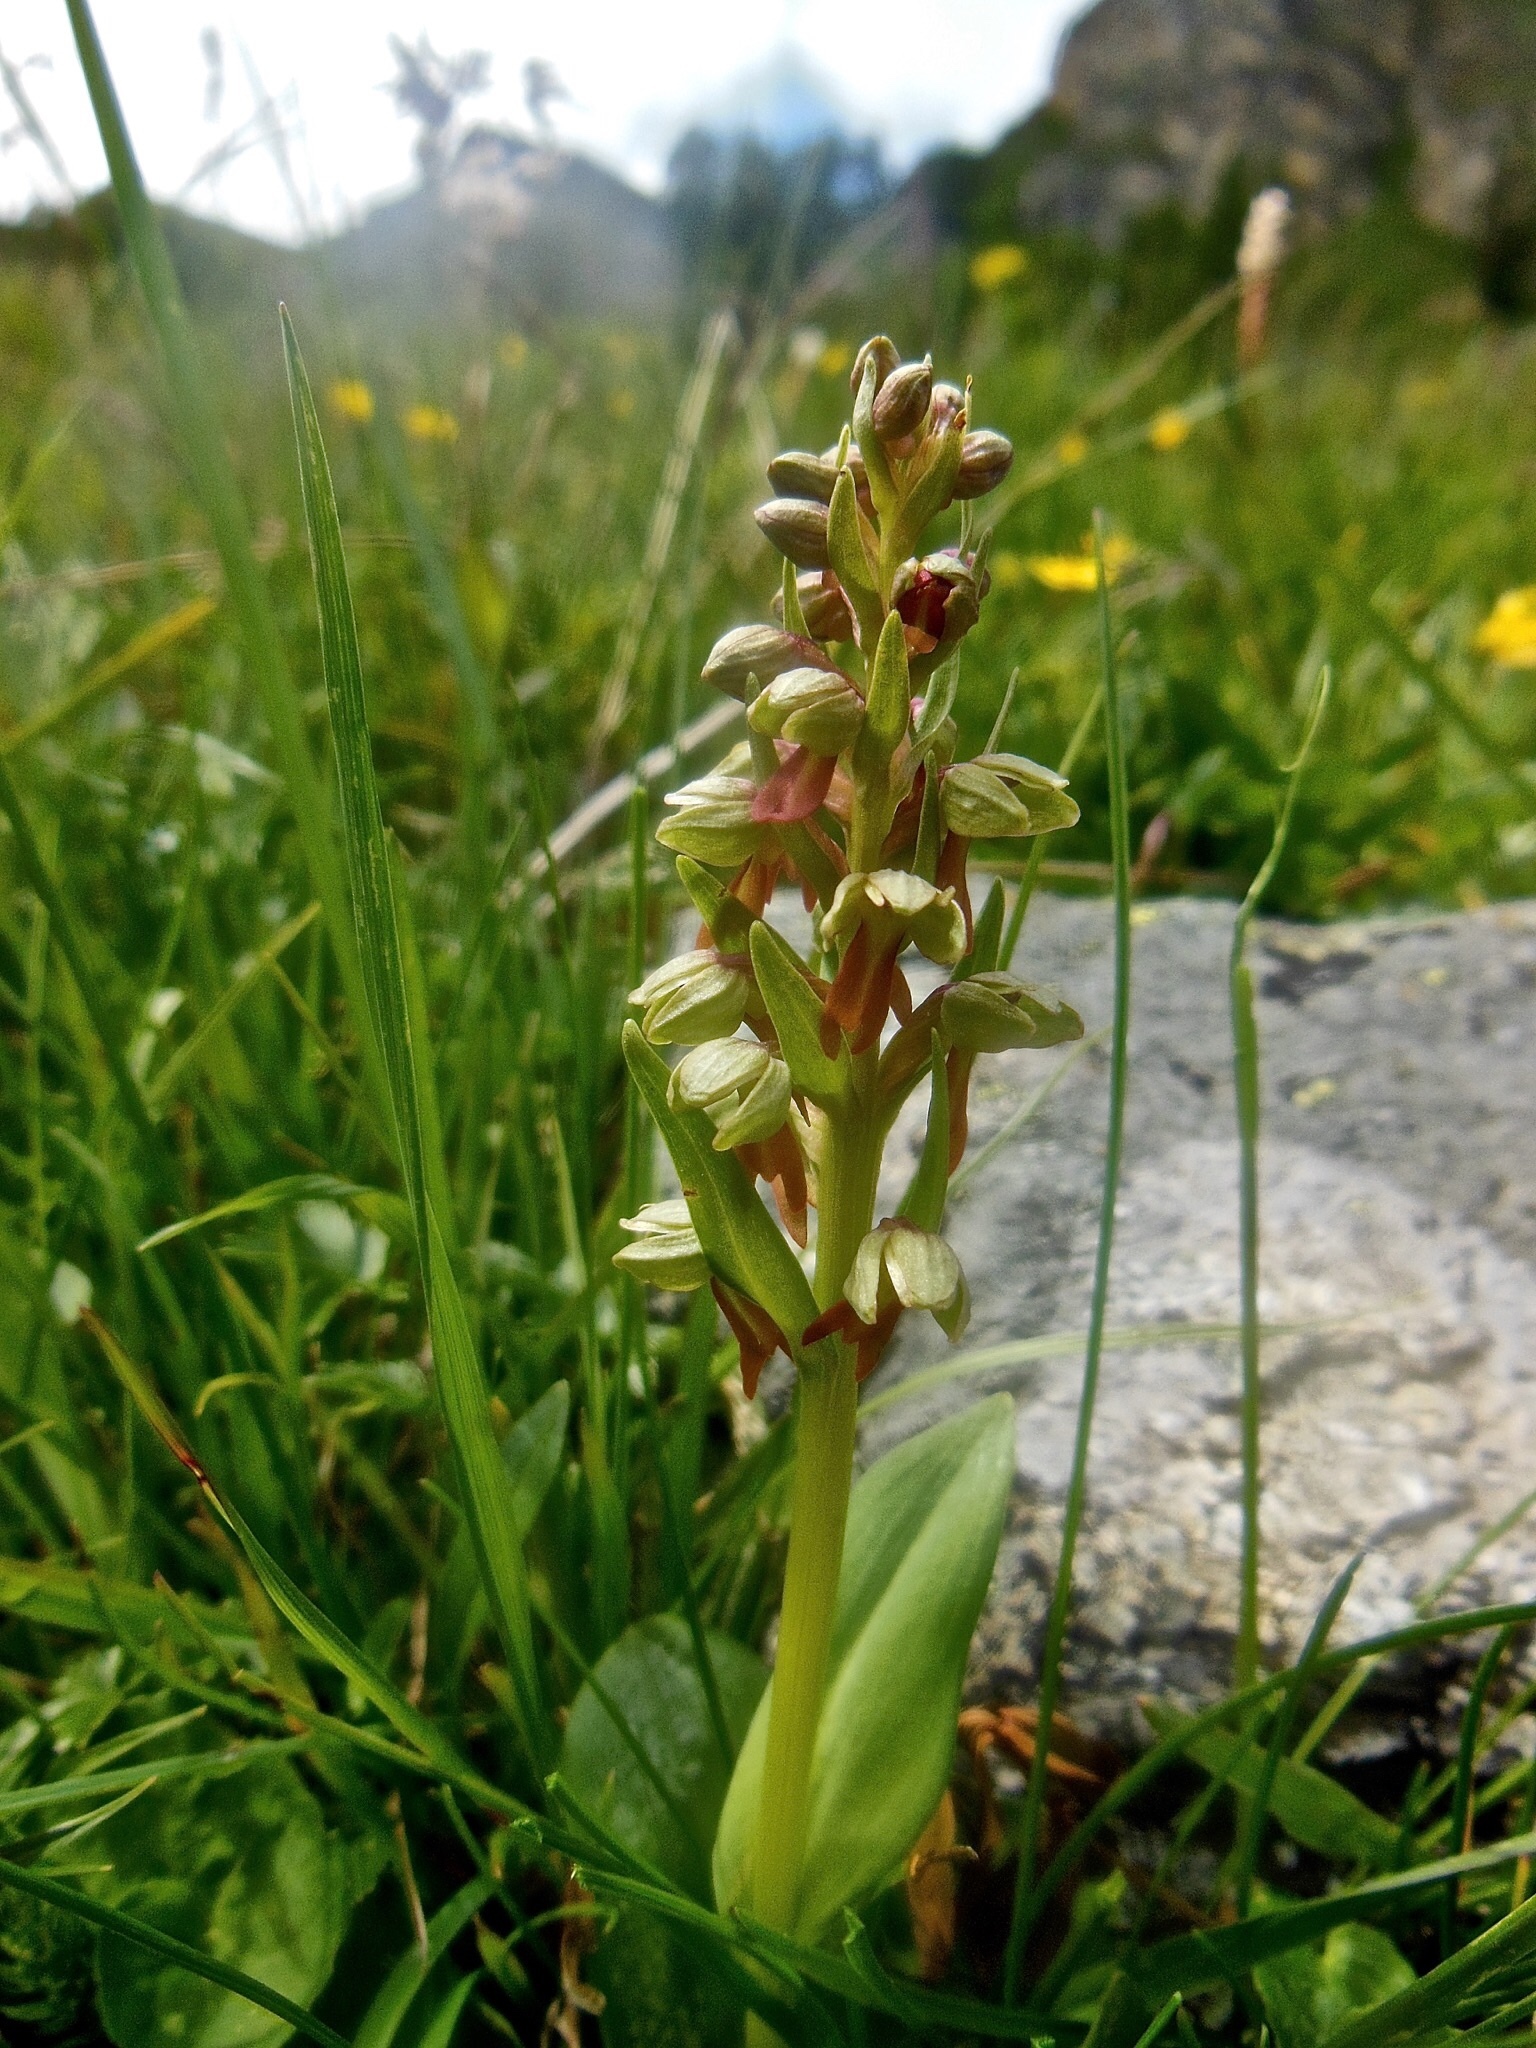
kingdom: Plantae
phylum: Tracheophyta
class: Liliopsida
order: Asparagales
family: Orchidaceae
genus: Dactylorhiza
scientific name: Dactylorhiza viridis
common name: Longbract frog orchid
